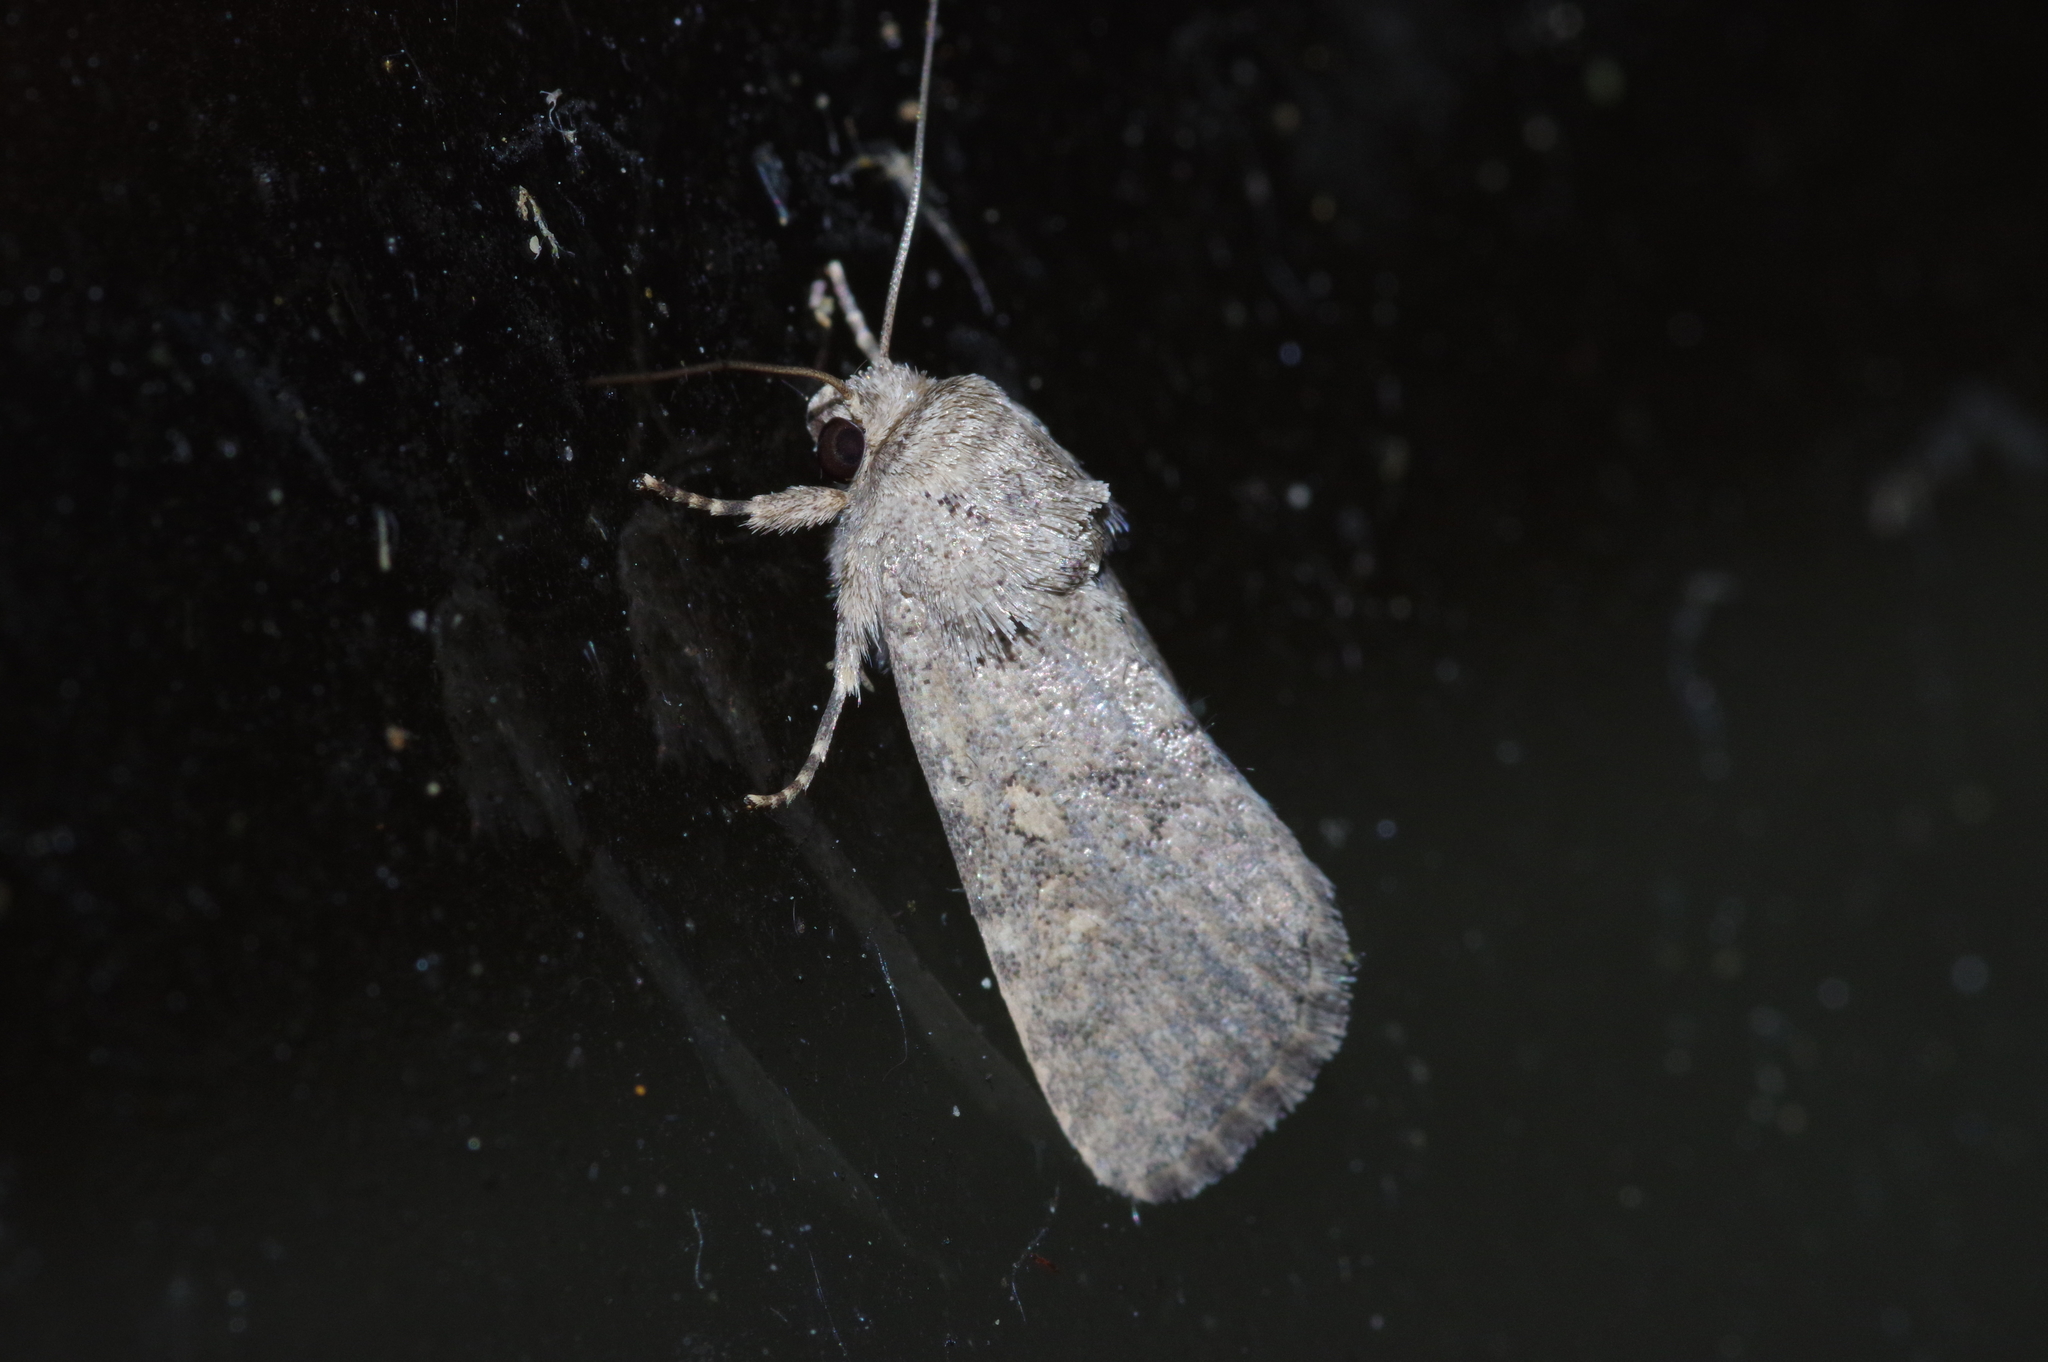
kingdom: Animalia
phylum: Arthropoda
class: Insecta
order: Lepidoptera
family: Noctuidae
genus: Spodoptera
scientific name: Spodoptera exigua
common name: Beet armyworm
